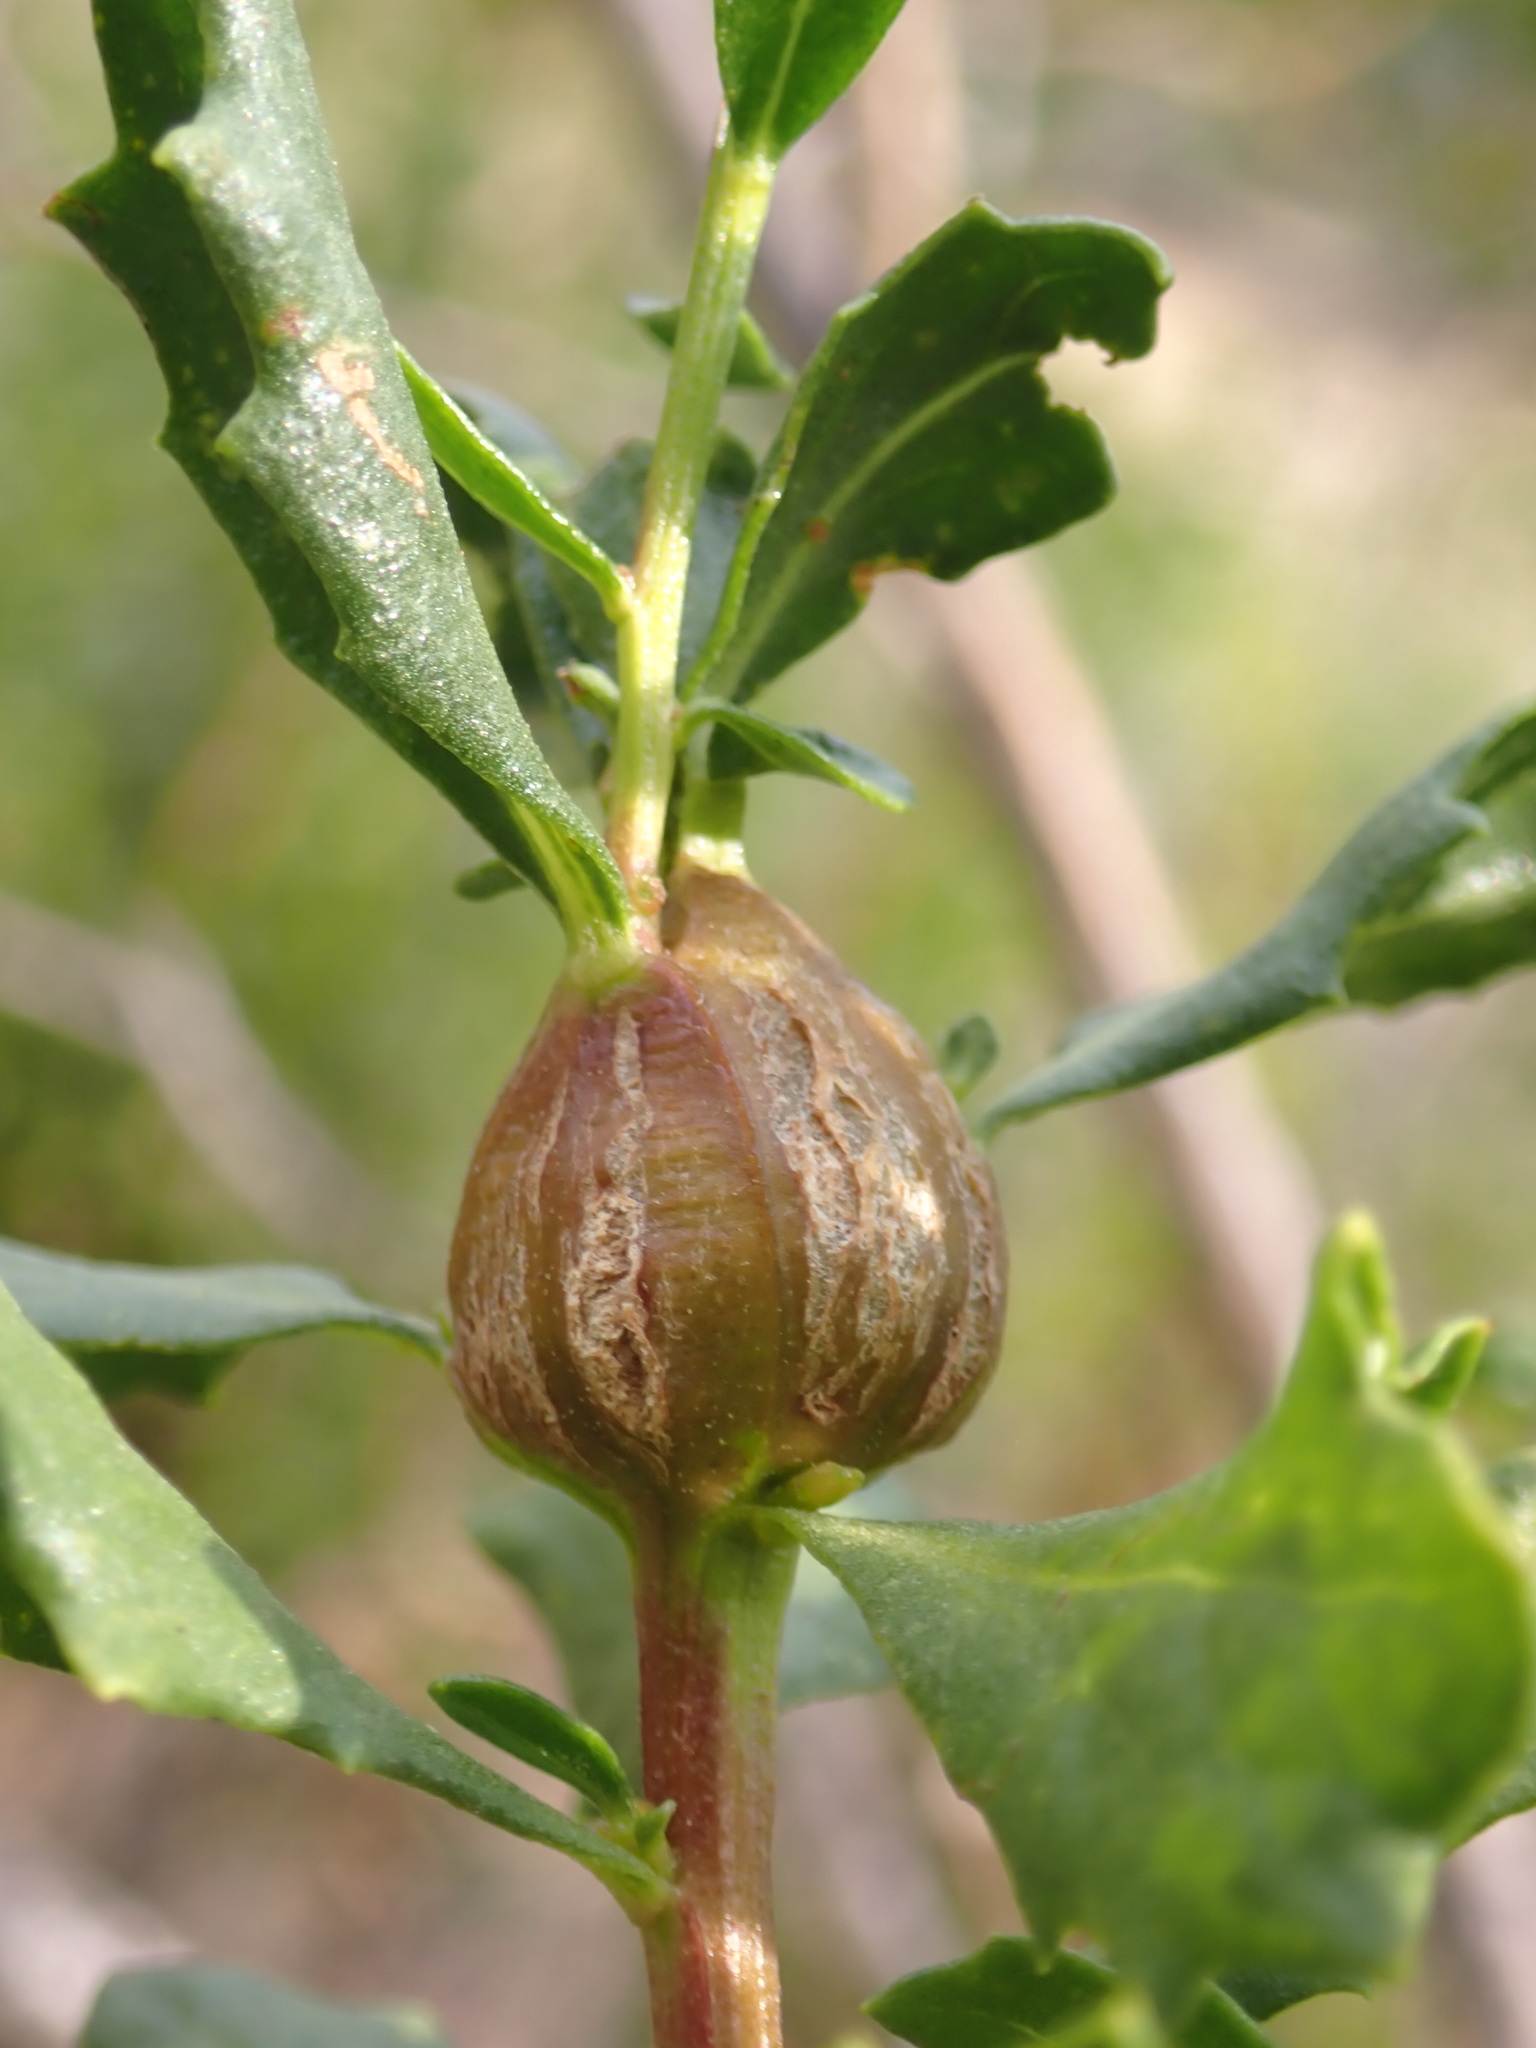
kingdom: Animalia
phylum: Arthropoda
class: Insecta
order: Lepidoptera
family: Gelechiidae
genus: Gnorimoschema
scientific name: Gnorimoschema baccharisella
